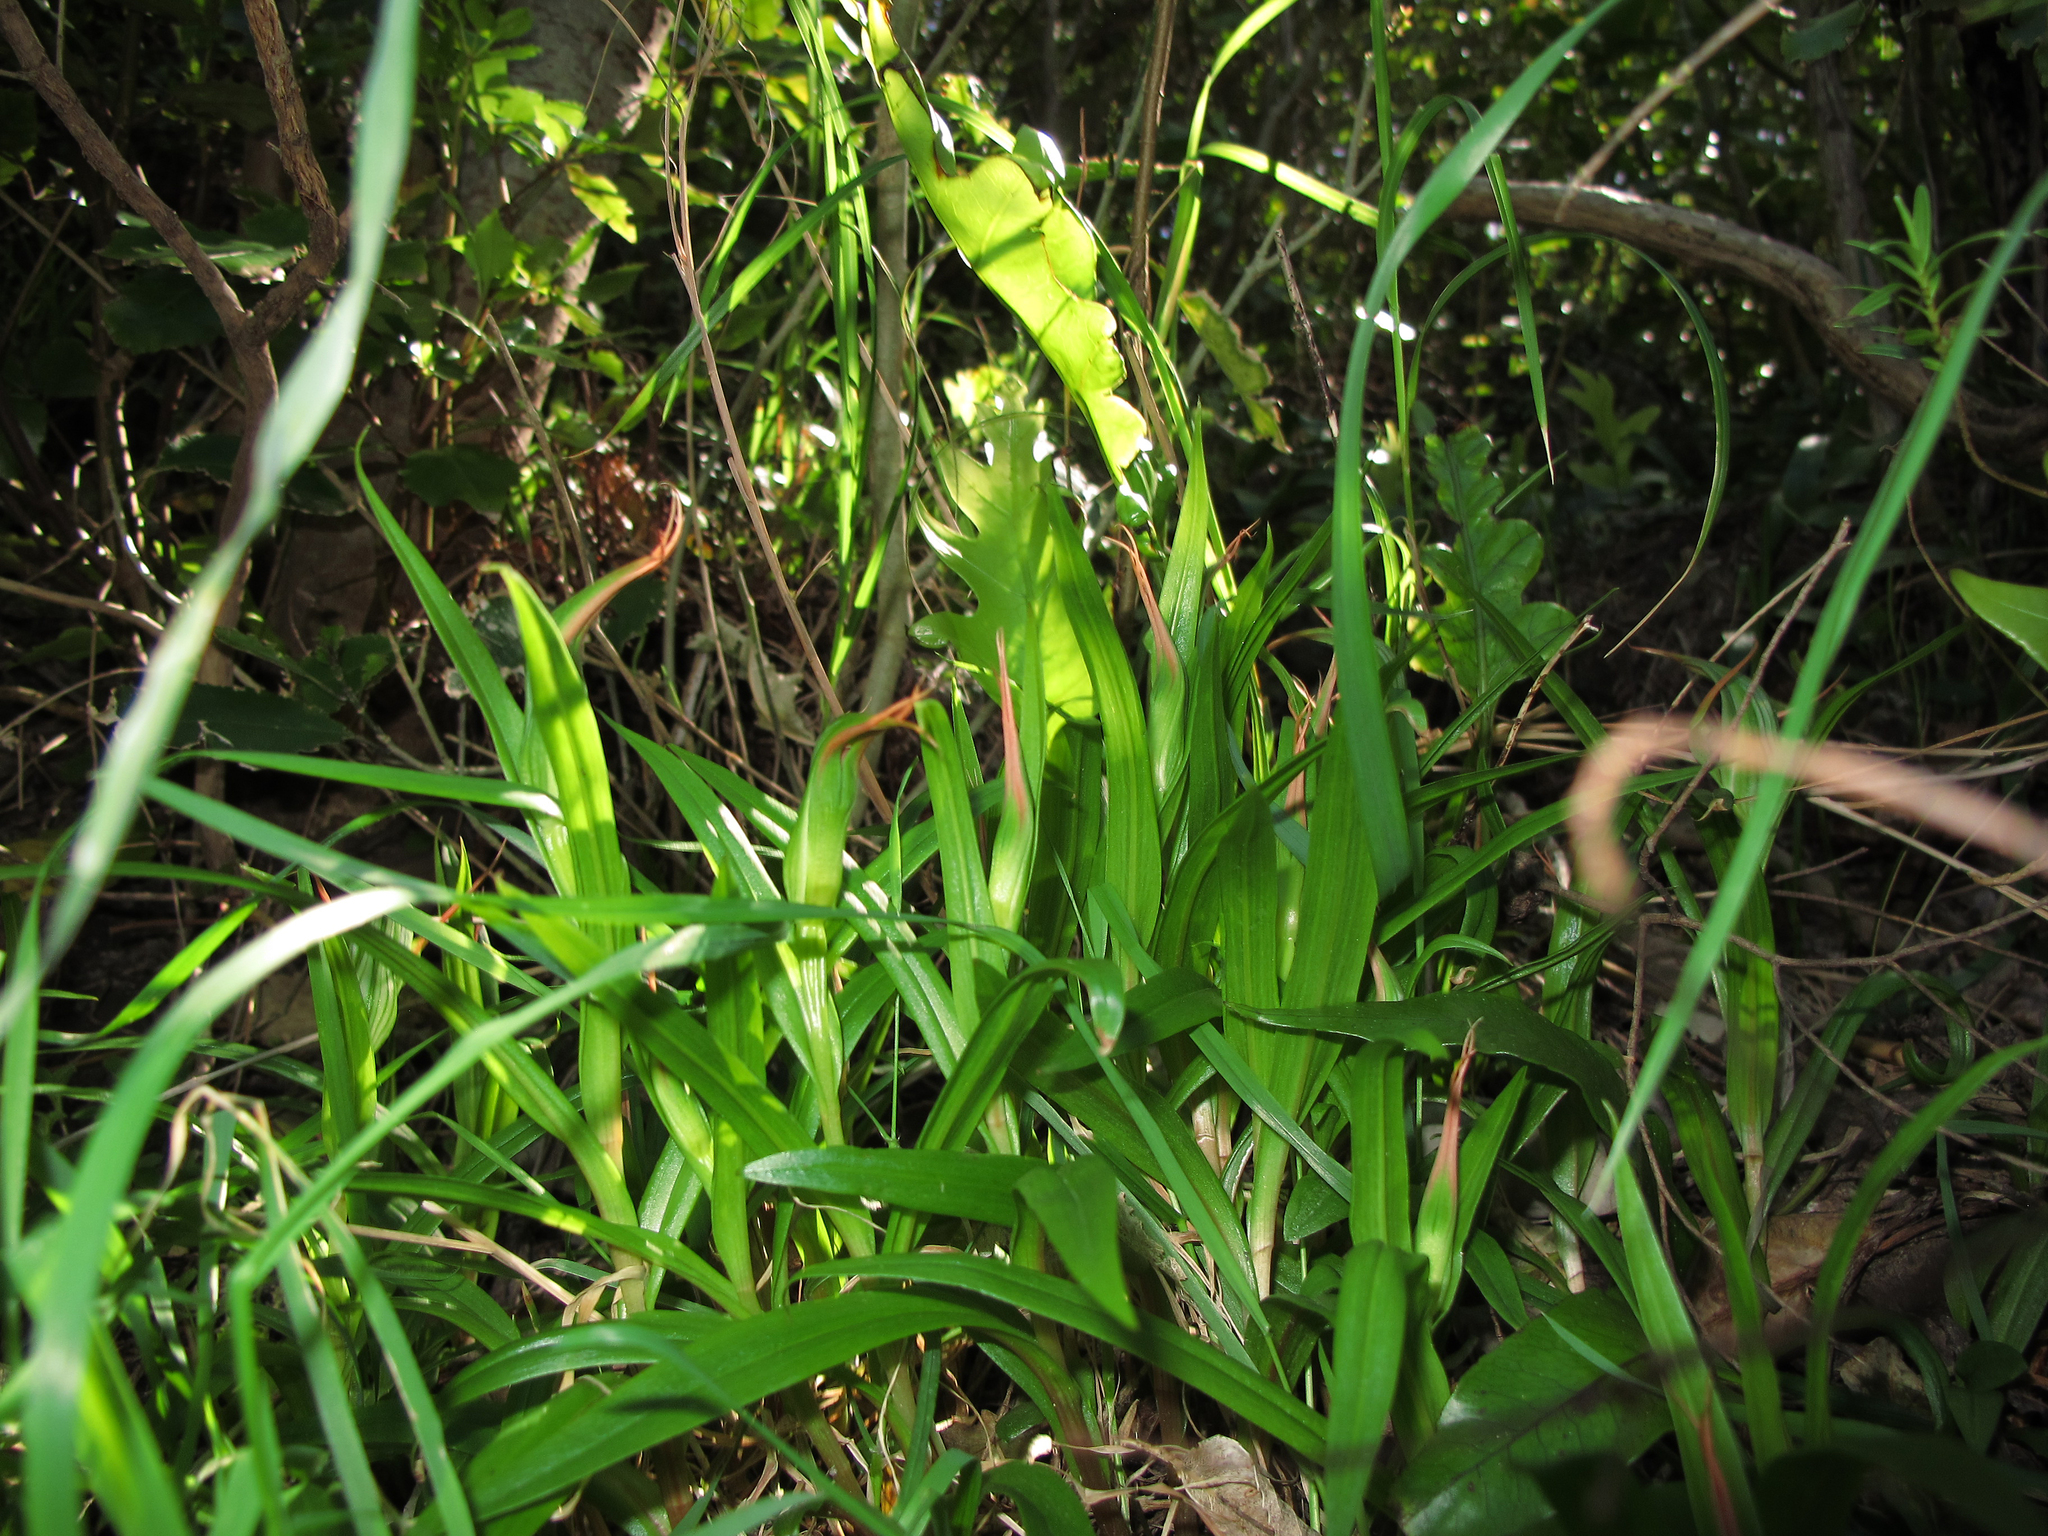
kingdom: Plantae
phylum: Tracheophyta
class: Liliopsida
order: Asparagales
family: Orchidaceae
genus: Pterostylis
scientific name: Pterostylis cardiostigma
